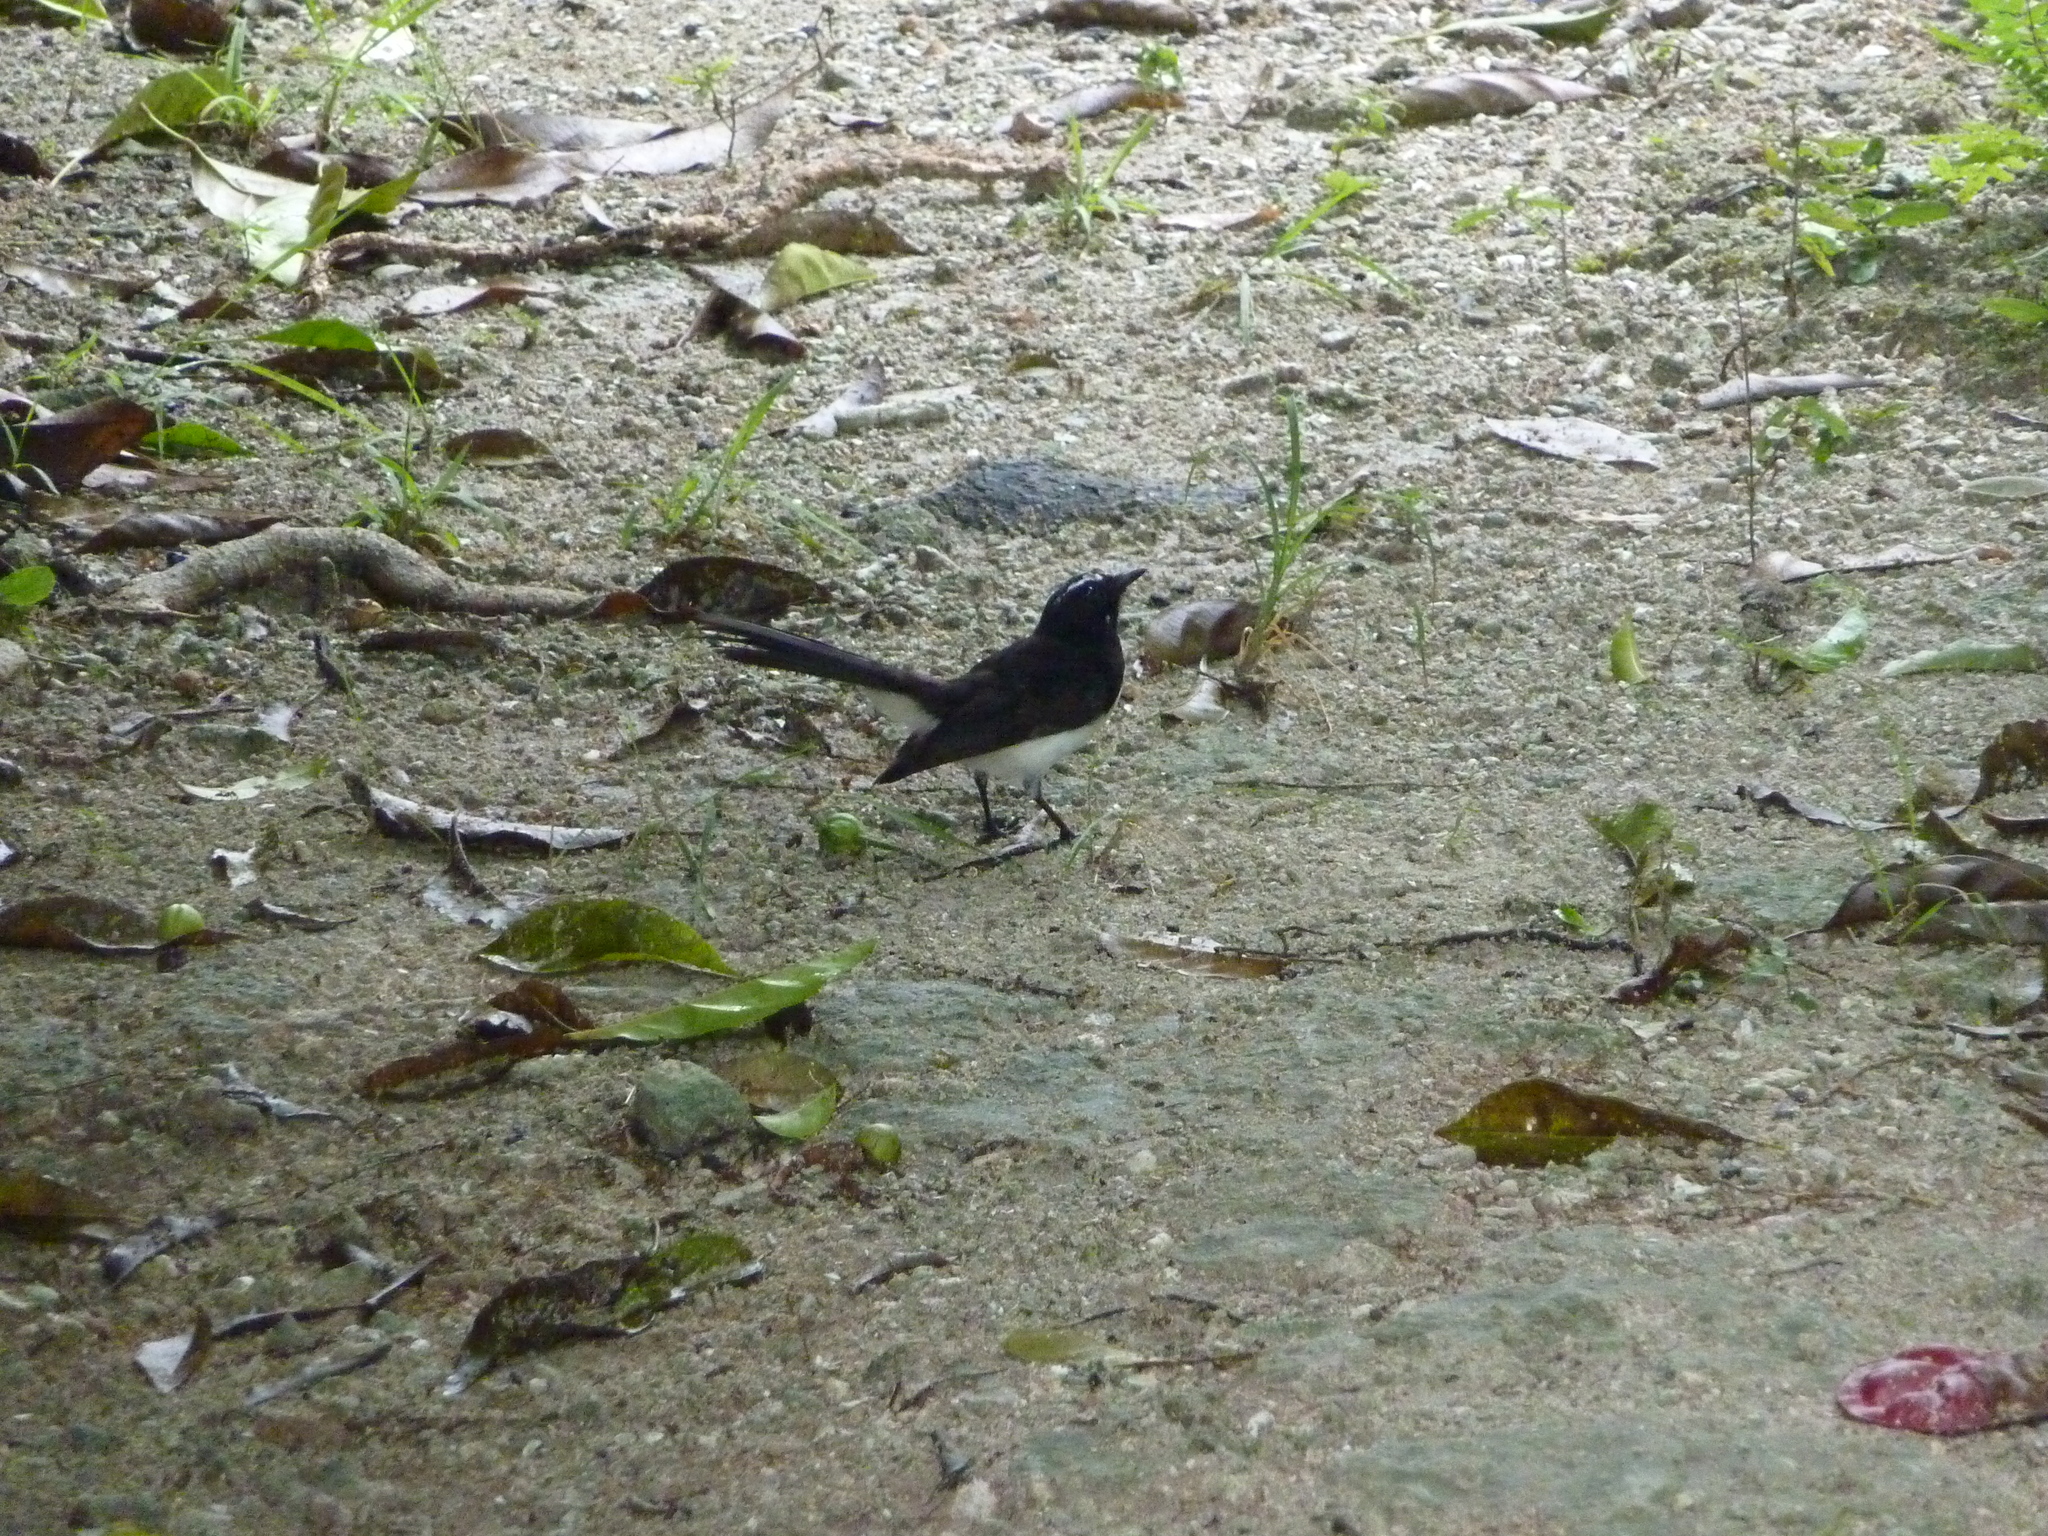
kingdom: Animalia
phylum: Chordata
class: Aves
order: Passeriformes
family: Rhipiduridae
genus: Rhipidura
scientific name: Rhipidura leucophrys
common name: Willie wagtail
